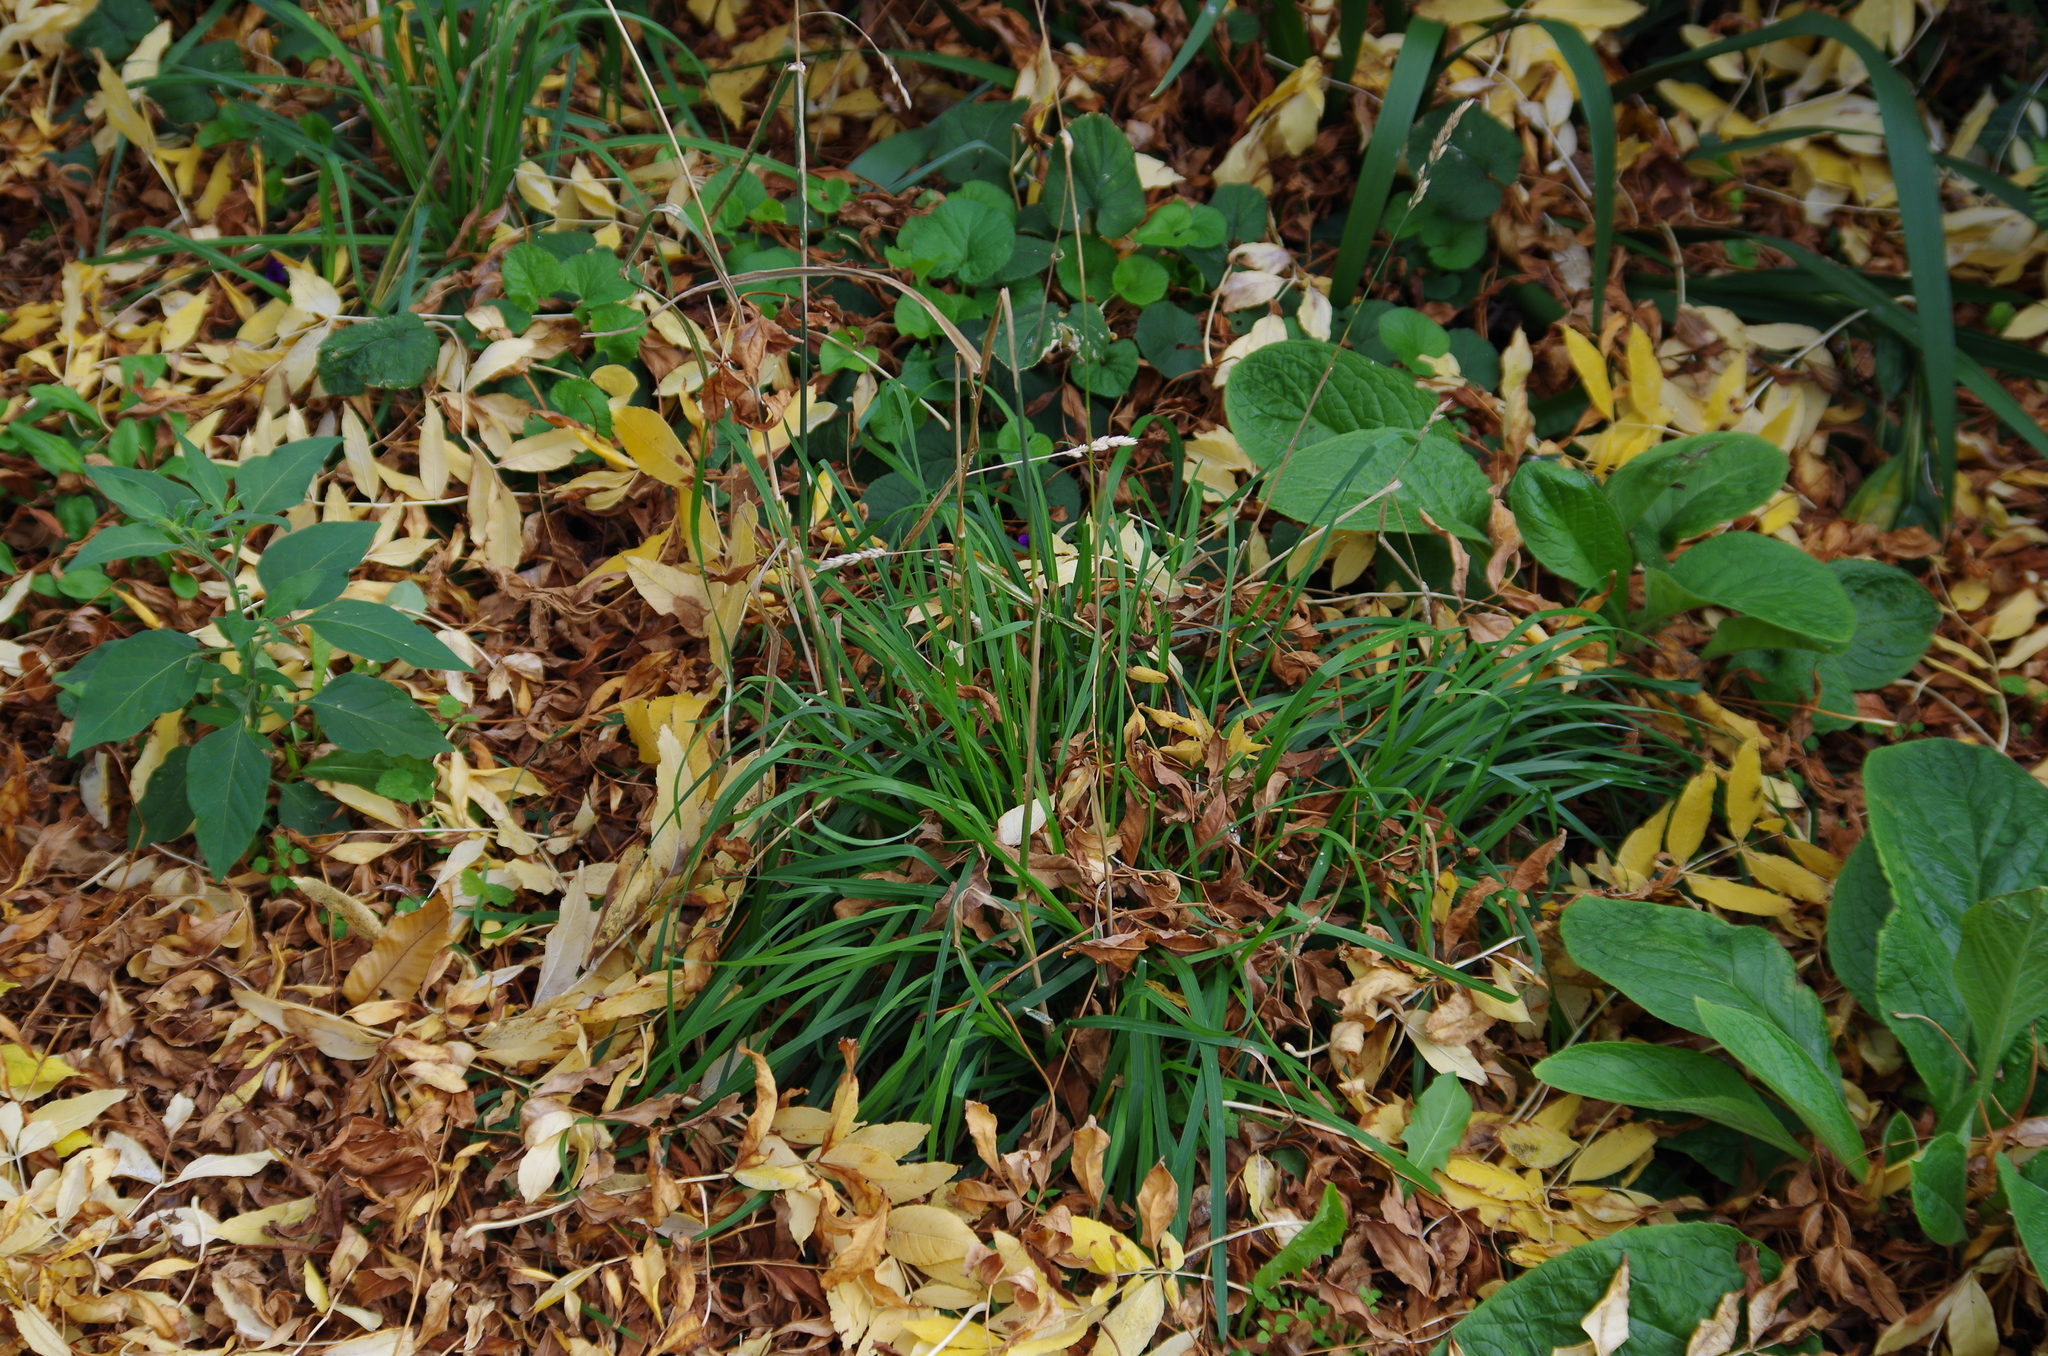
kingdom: Plantae
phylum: Tracheophyta
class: Liliopsida
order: Poales
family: Poaceae
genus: Dactylis
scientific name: Dactylis glomerata
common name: Orchardgrass
